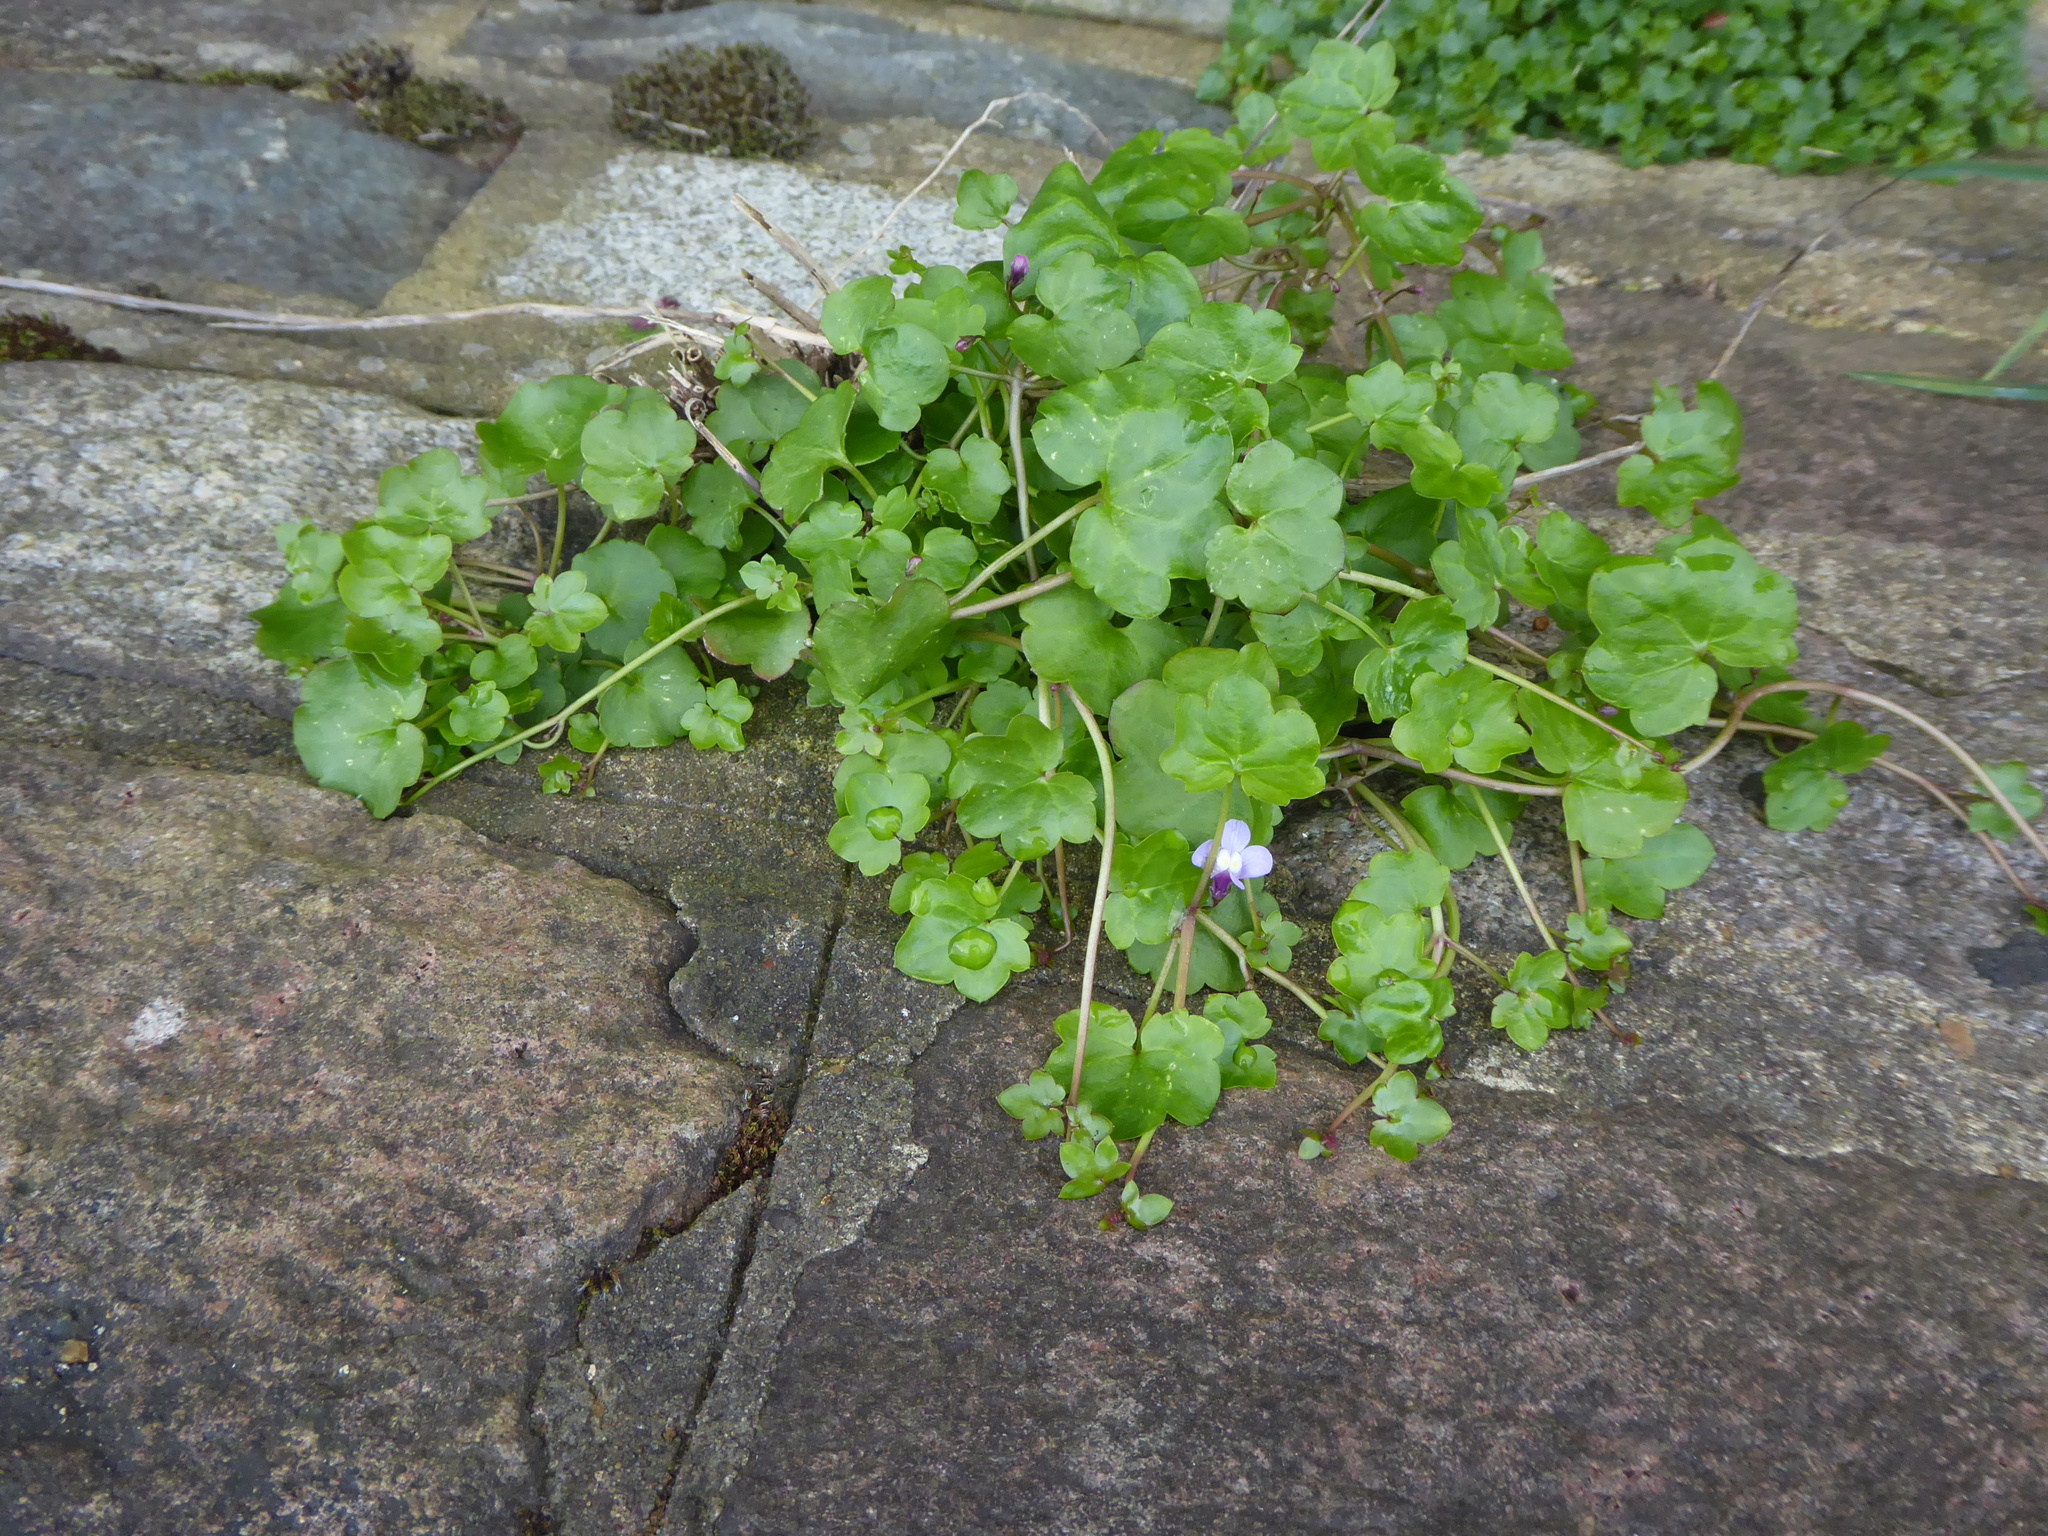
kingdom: Plantae
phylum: Tracheophyta
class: Magnoliopsida
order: Lamiales
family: Plantaginaceae
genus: Cymbalaria
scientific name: Cymbalaria muralis
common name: Ivy-leaved toadflax
